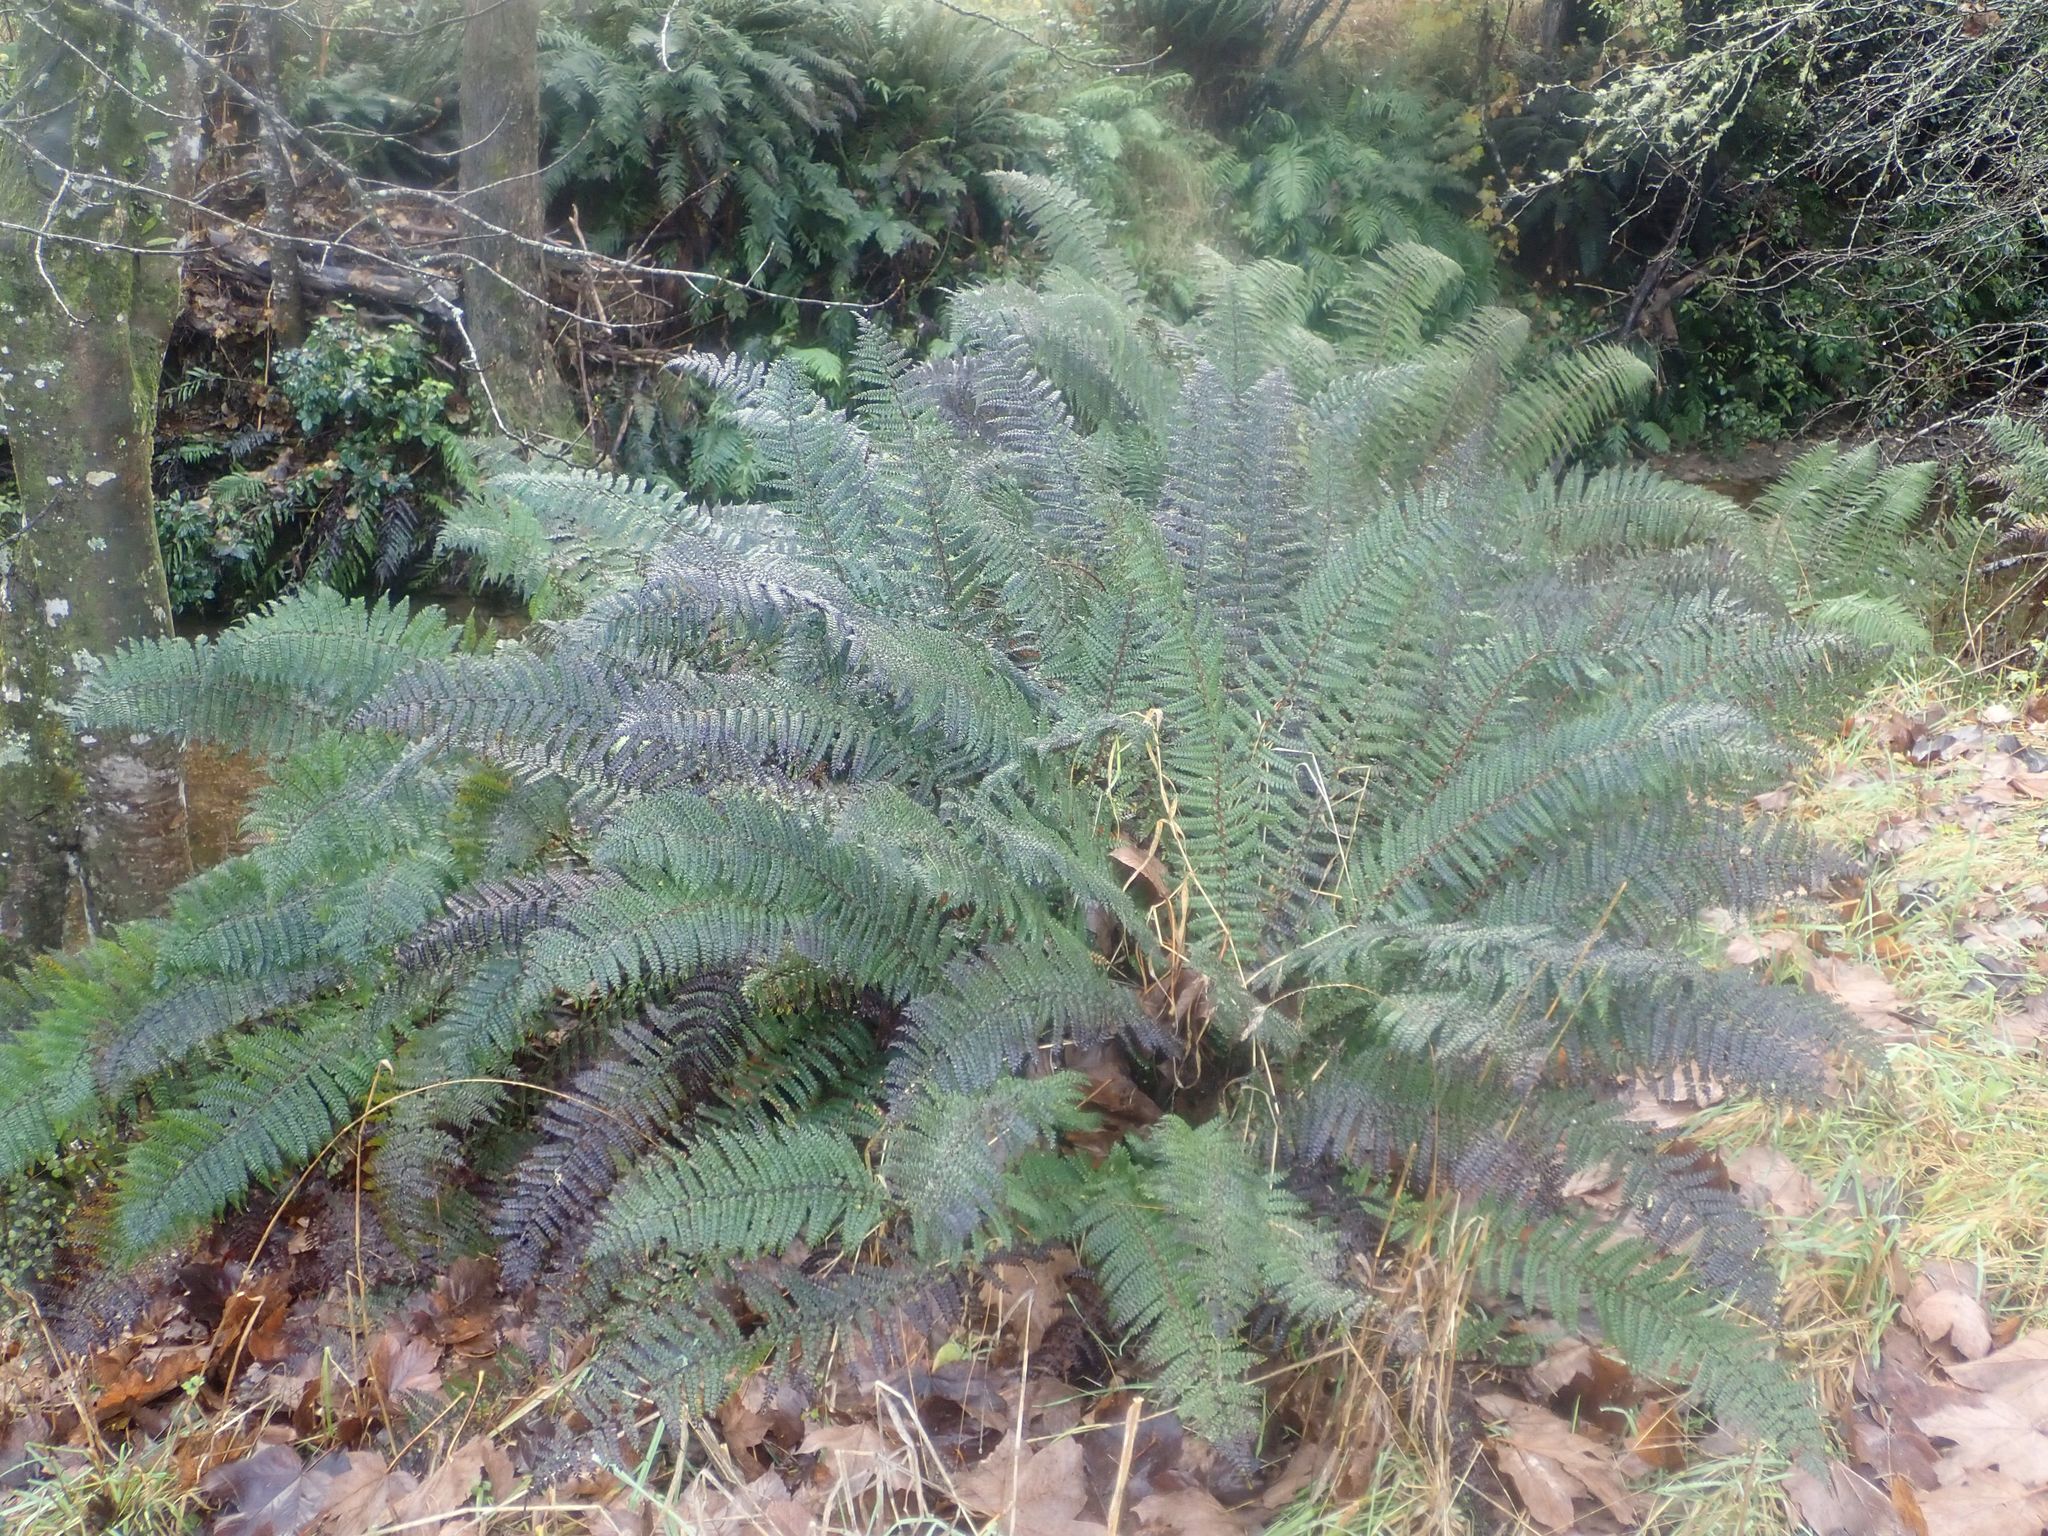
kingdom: Plantae
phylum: Tracheophyta
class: Polypodiopsida
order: Polypodiales
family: Dryopteridaceae
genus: Polystichum
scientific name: Polystichum vestitum
